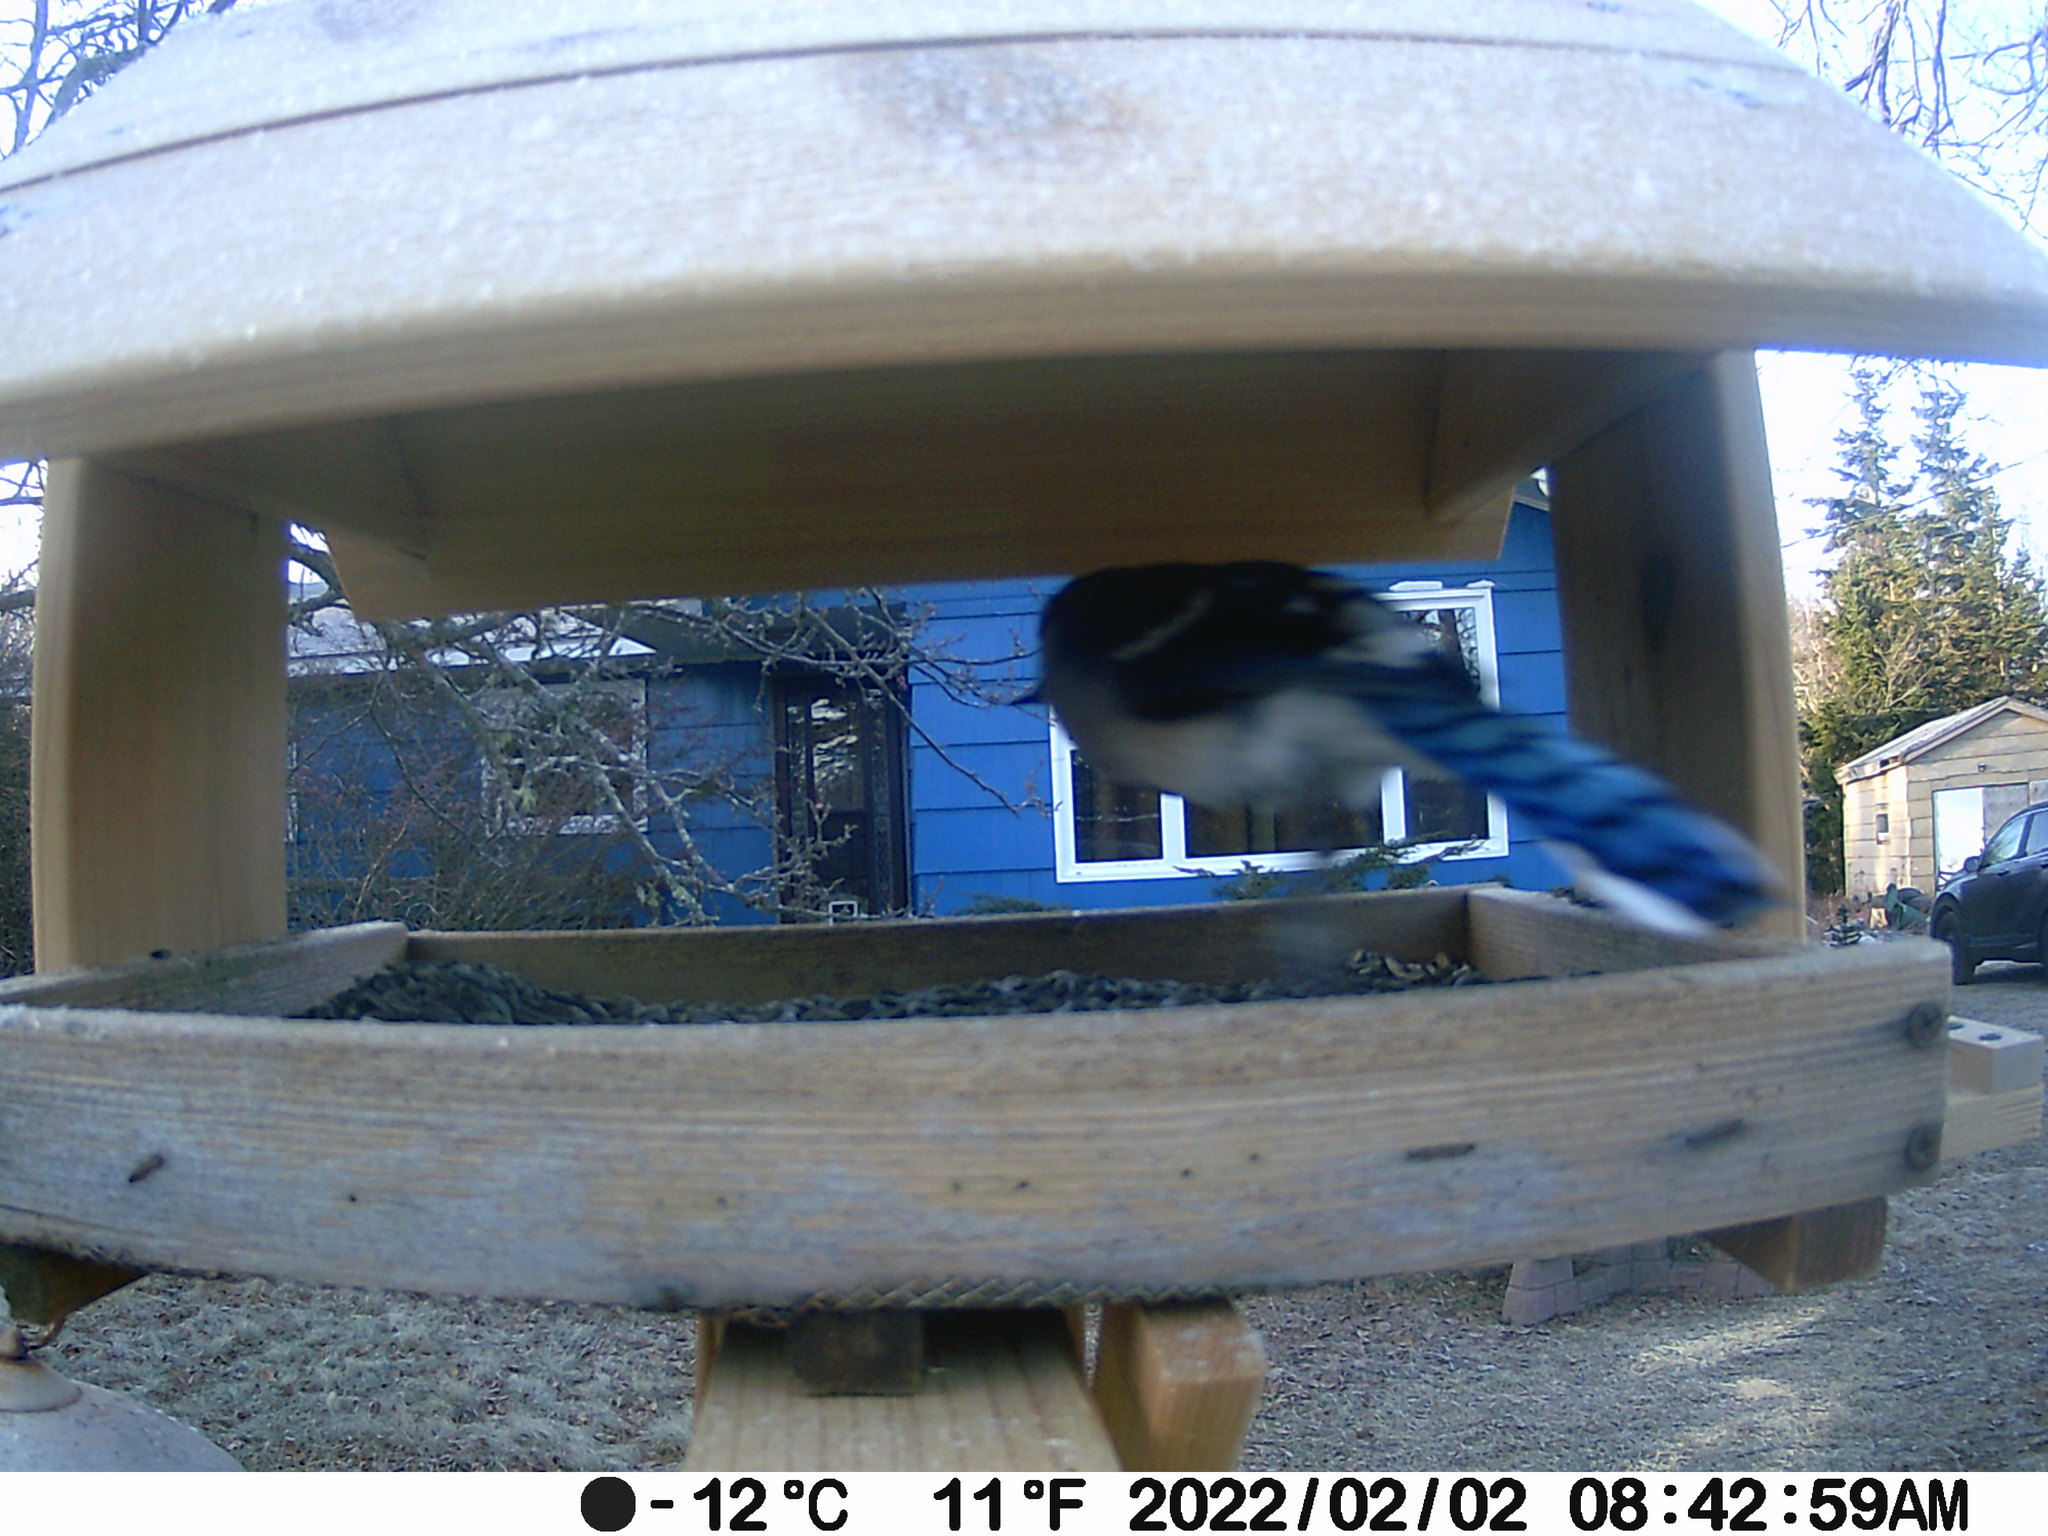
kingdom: Animalia
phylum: Chordata
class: Aves
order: Passeriformes
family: Corvidae
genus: Cyanocitta
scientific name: Cyanocitta cristata
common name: Blue jay
